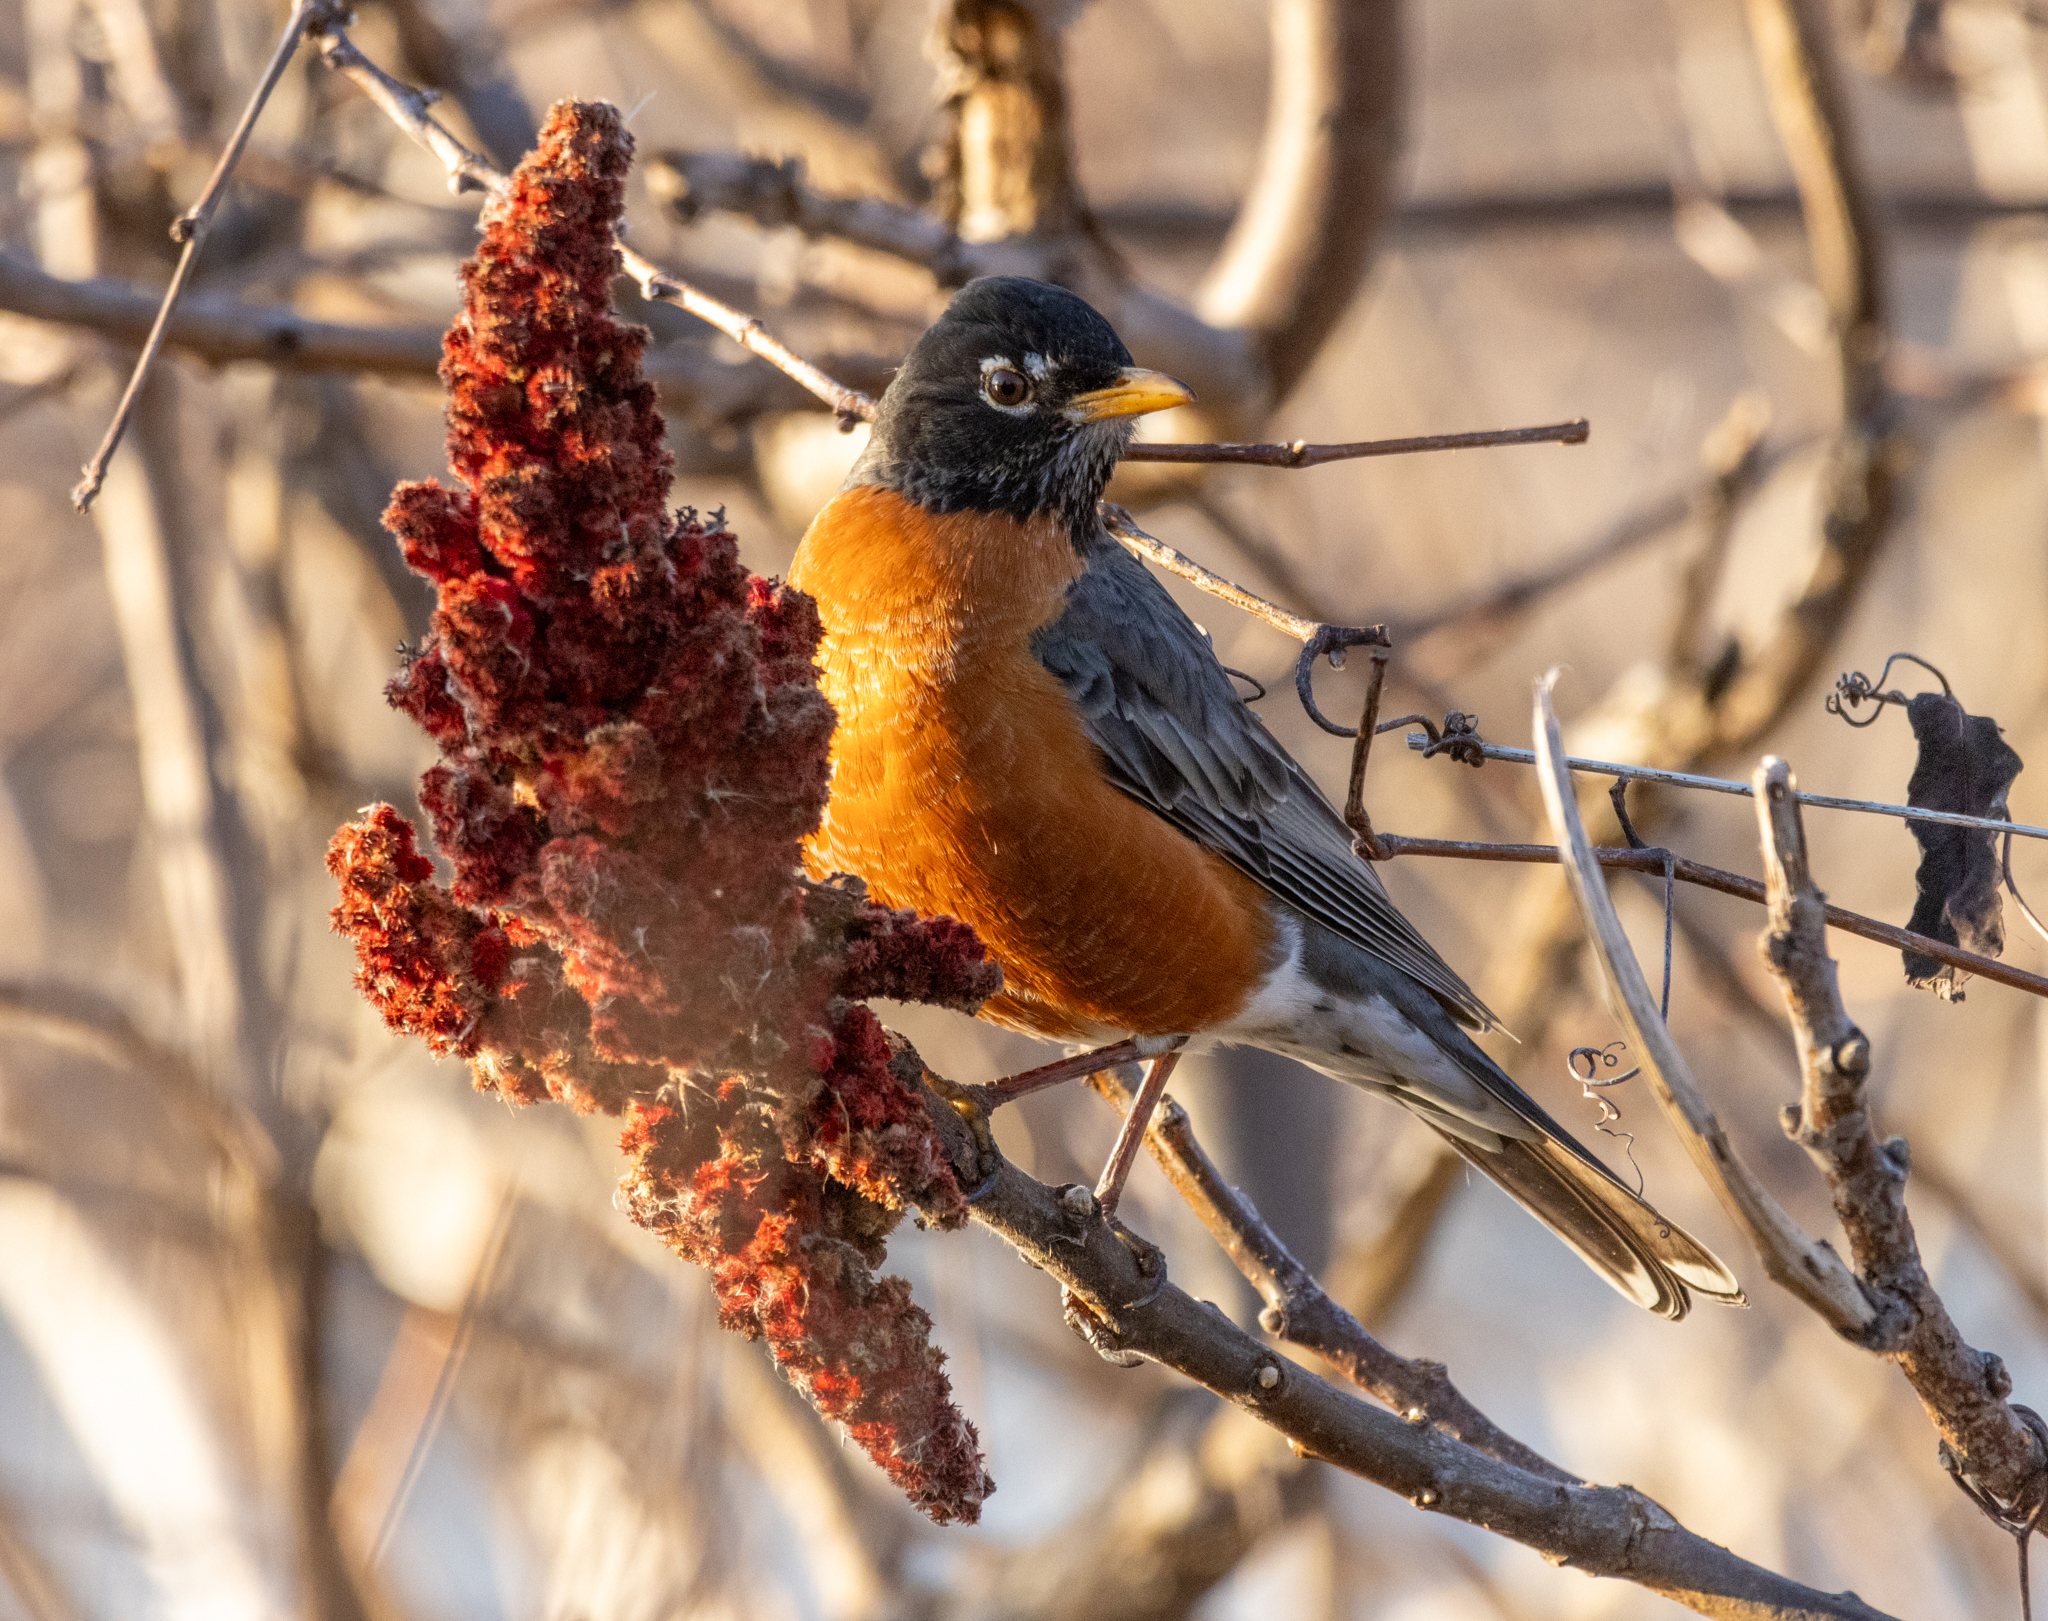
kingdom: Animalia
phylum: Chordata
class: Aves
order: Passeriformes
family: Turdidae
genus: Turdus
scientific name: Turdus migratorius
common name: American robin
